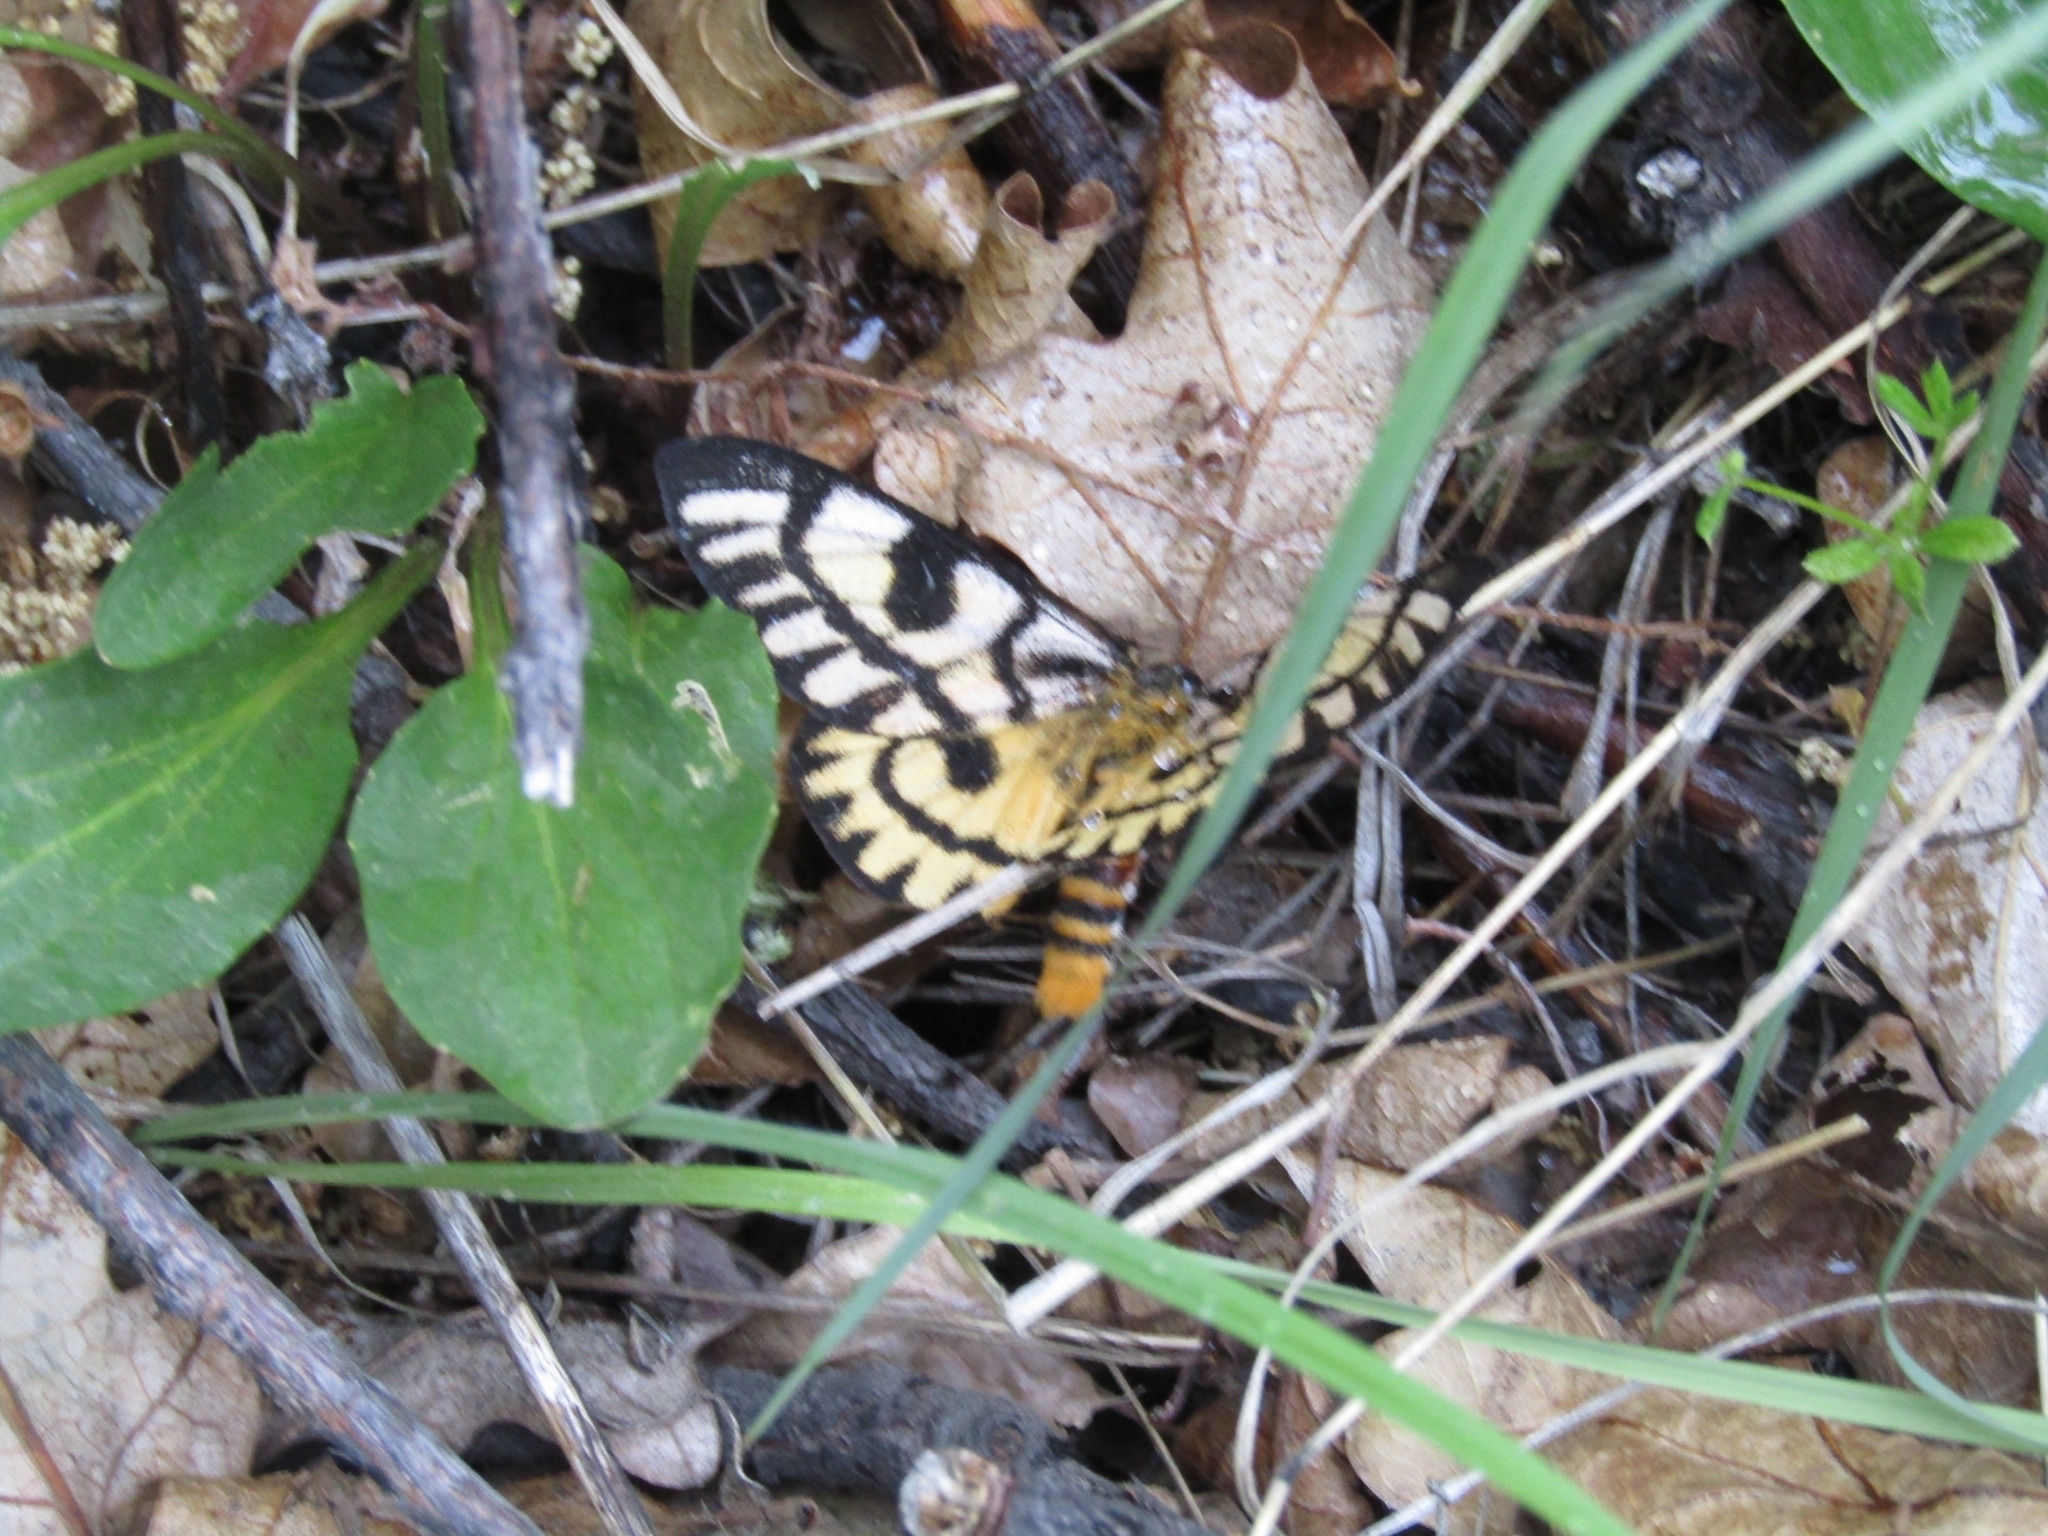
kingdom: Animalia
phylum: Arthropoda
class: Insecta
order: Lepidoptera
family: Saturniidae
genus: Hemileuca
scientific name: Hemileuca nutalli
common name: Nuttall's sheepmoth
